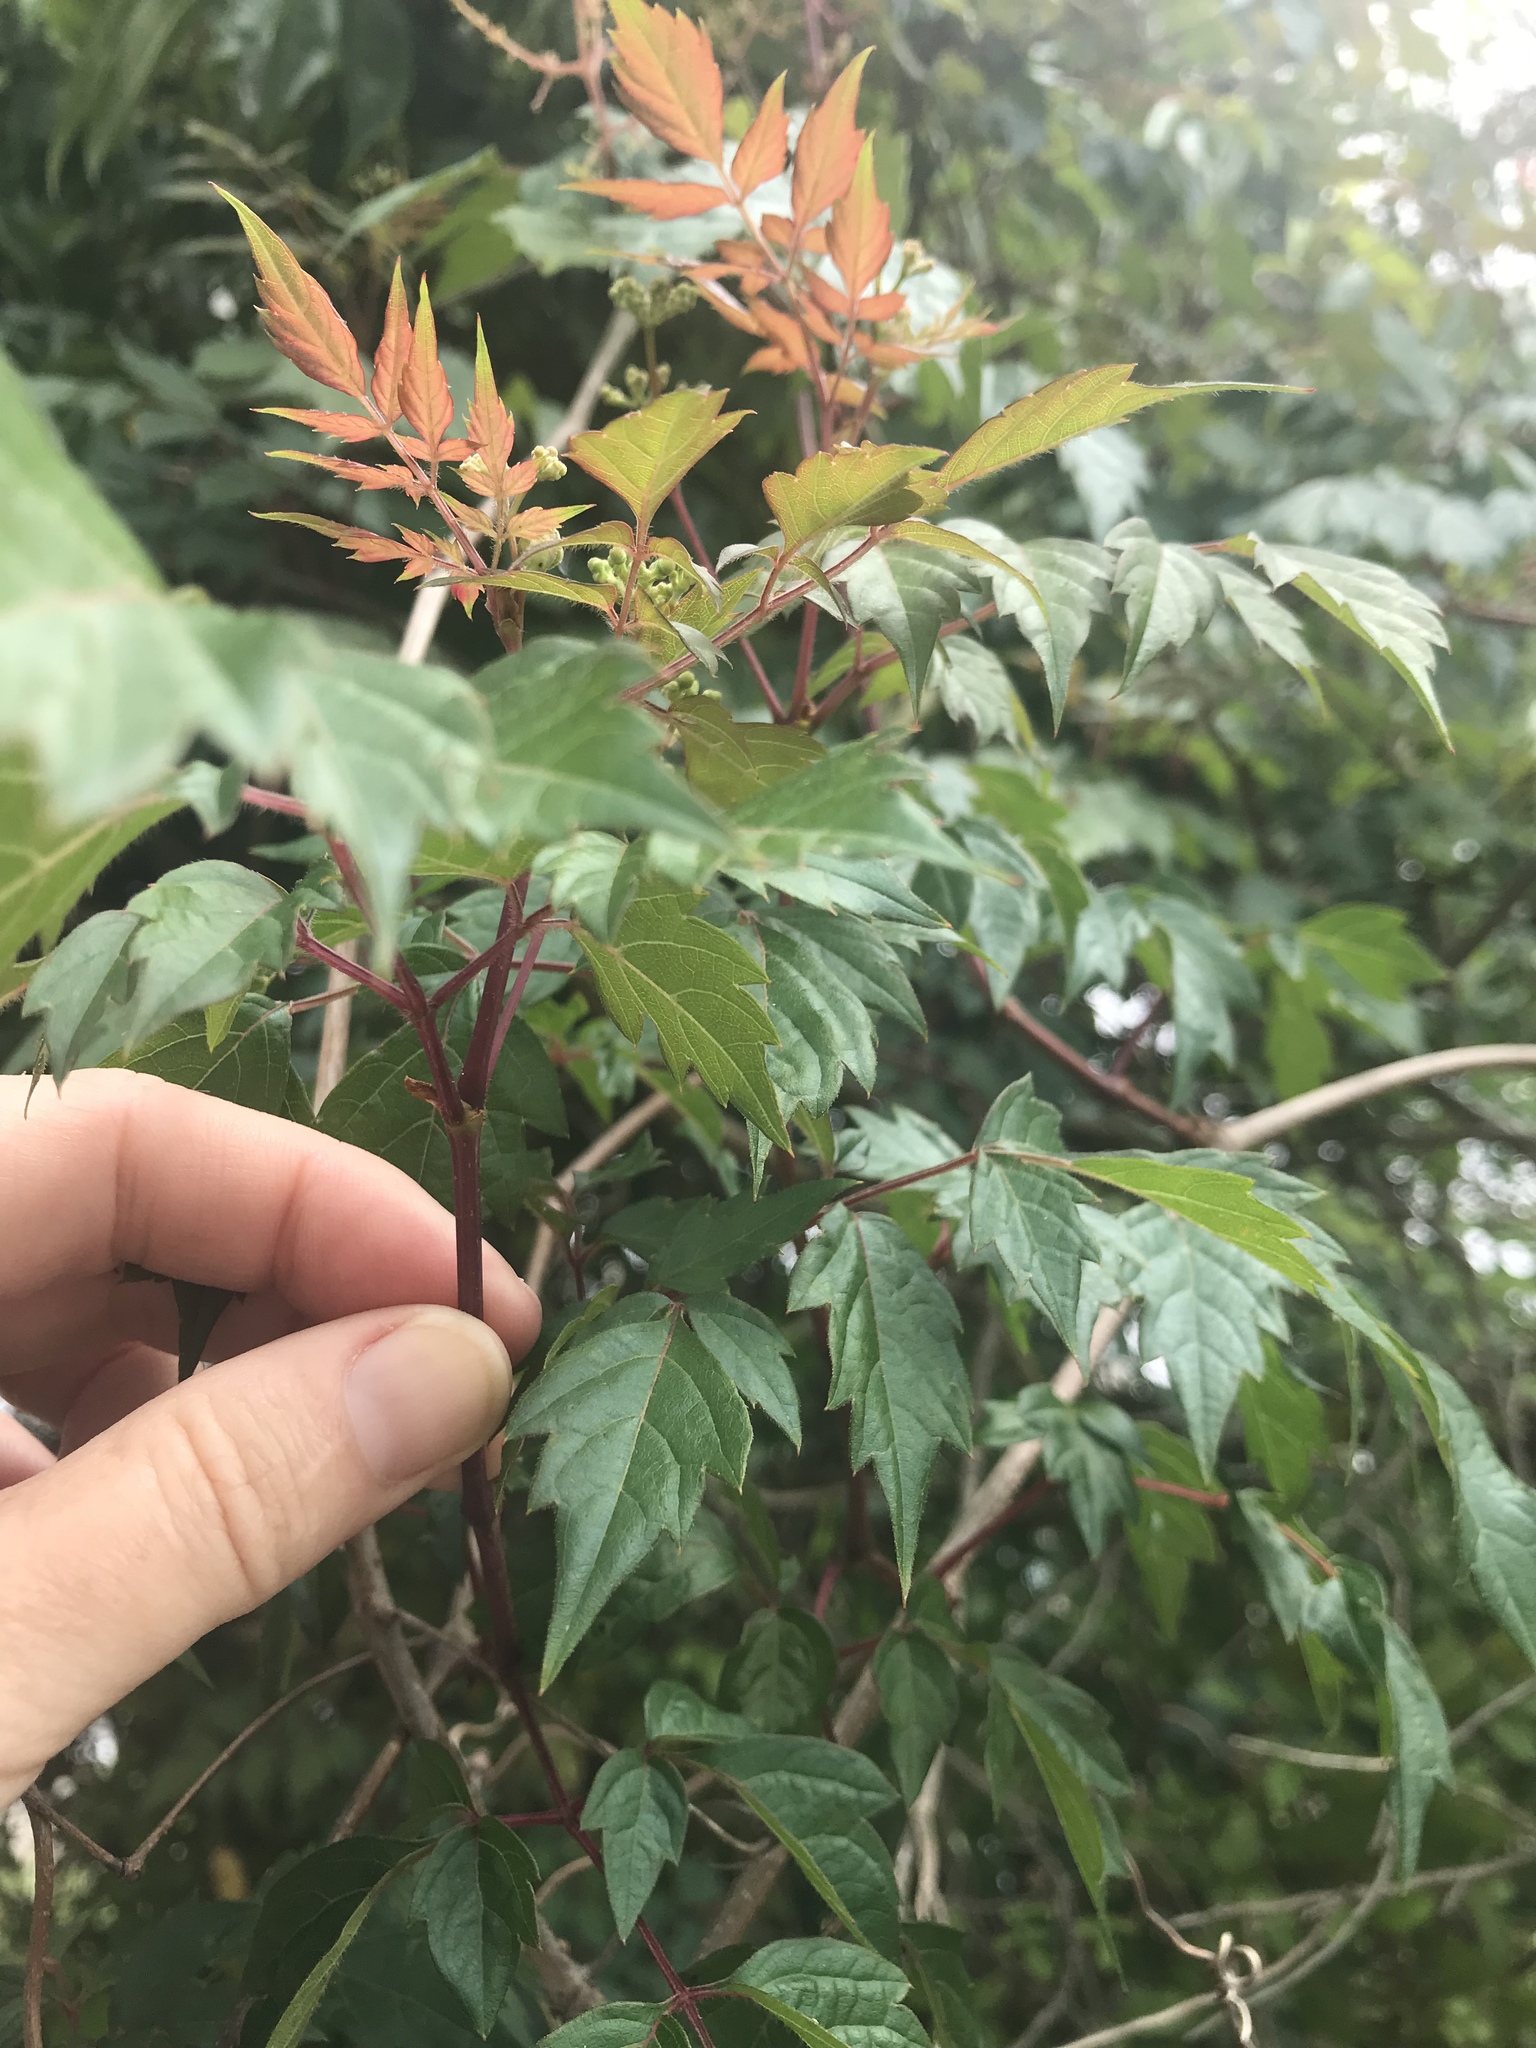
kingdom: Plantae
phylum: Tracheophyta
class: Magnoliopsida
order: Vitales
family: Vitaceae
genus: Nekemias
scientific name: Nekemias arborea
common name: Peppervine
